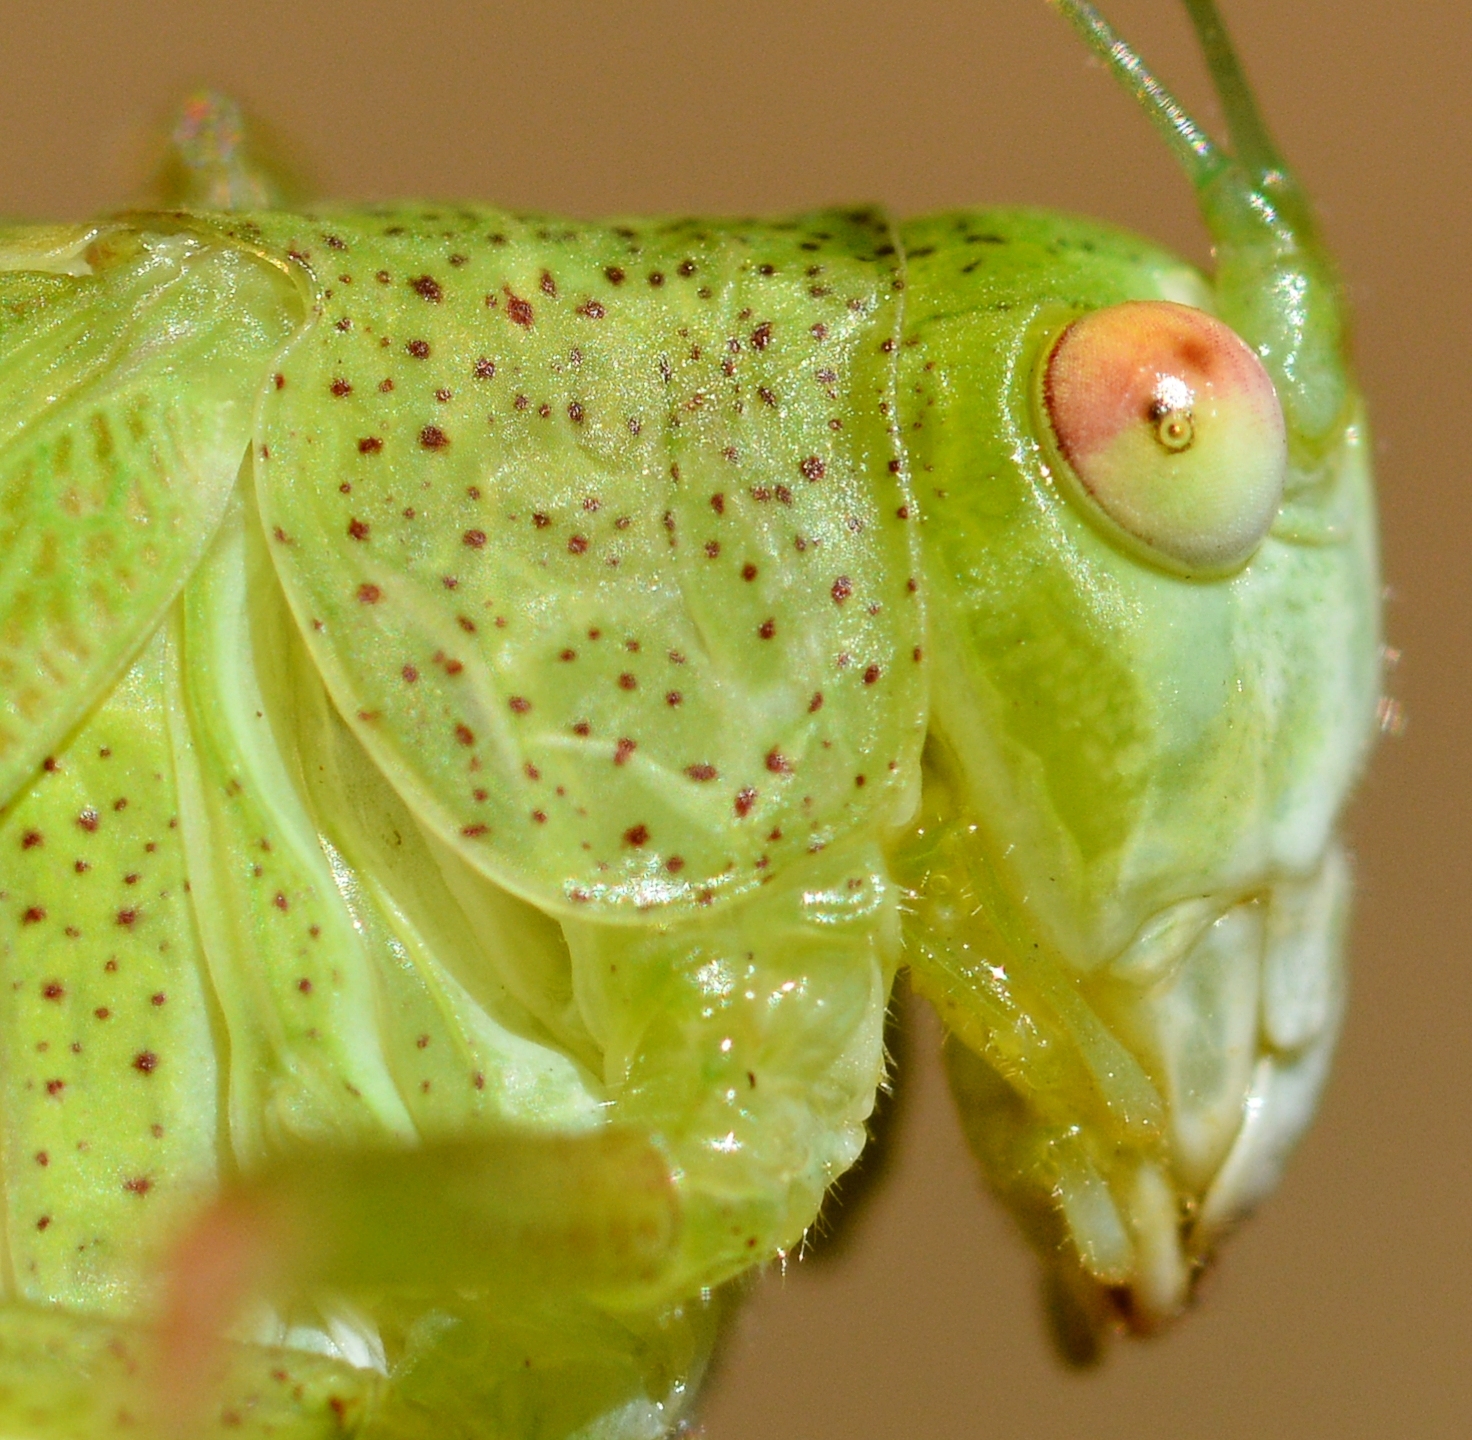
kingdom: Animalia
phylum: Arthropoda
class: Insecta
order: Orthoptera
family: Tettigoniidae
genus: Phaneroptera
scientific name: Phaneroptera nana
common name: Southern sickle bush-cricket
